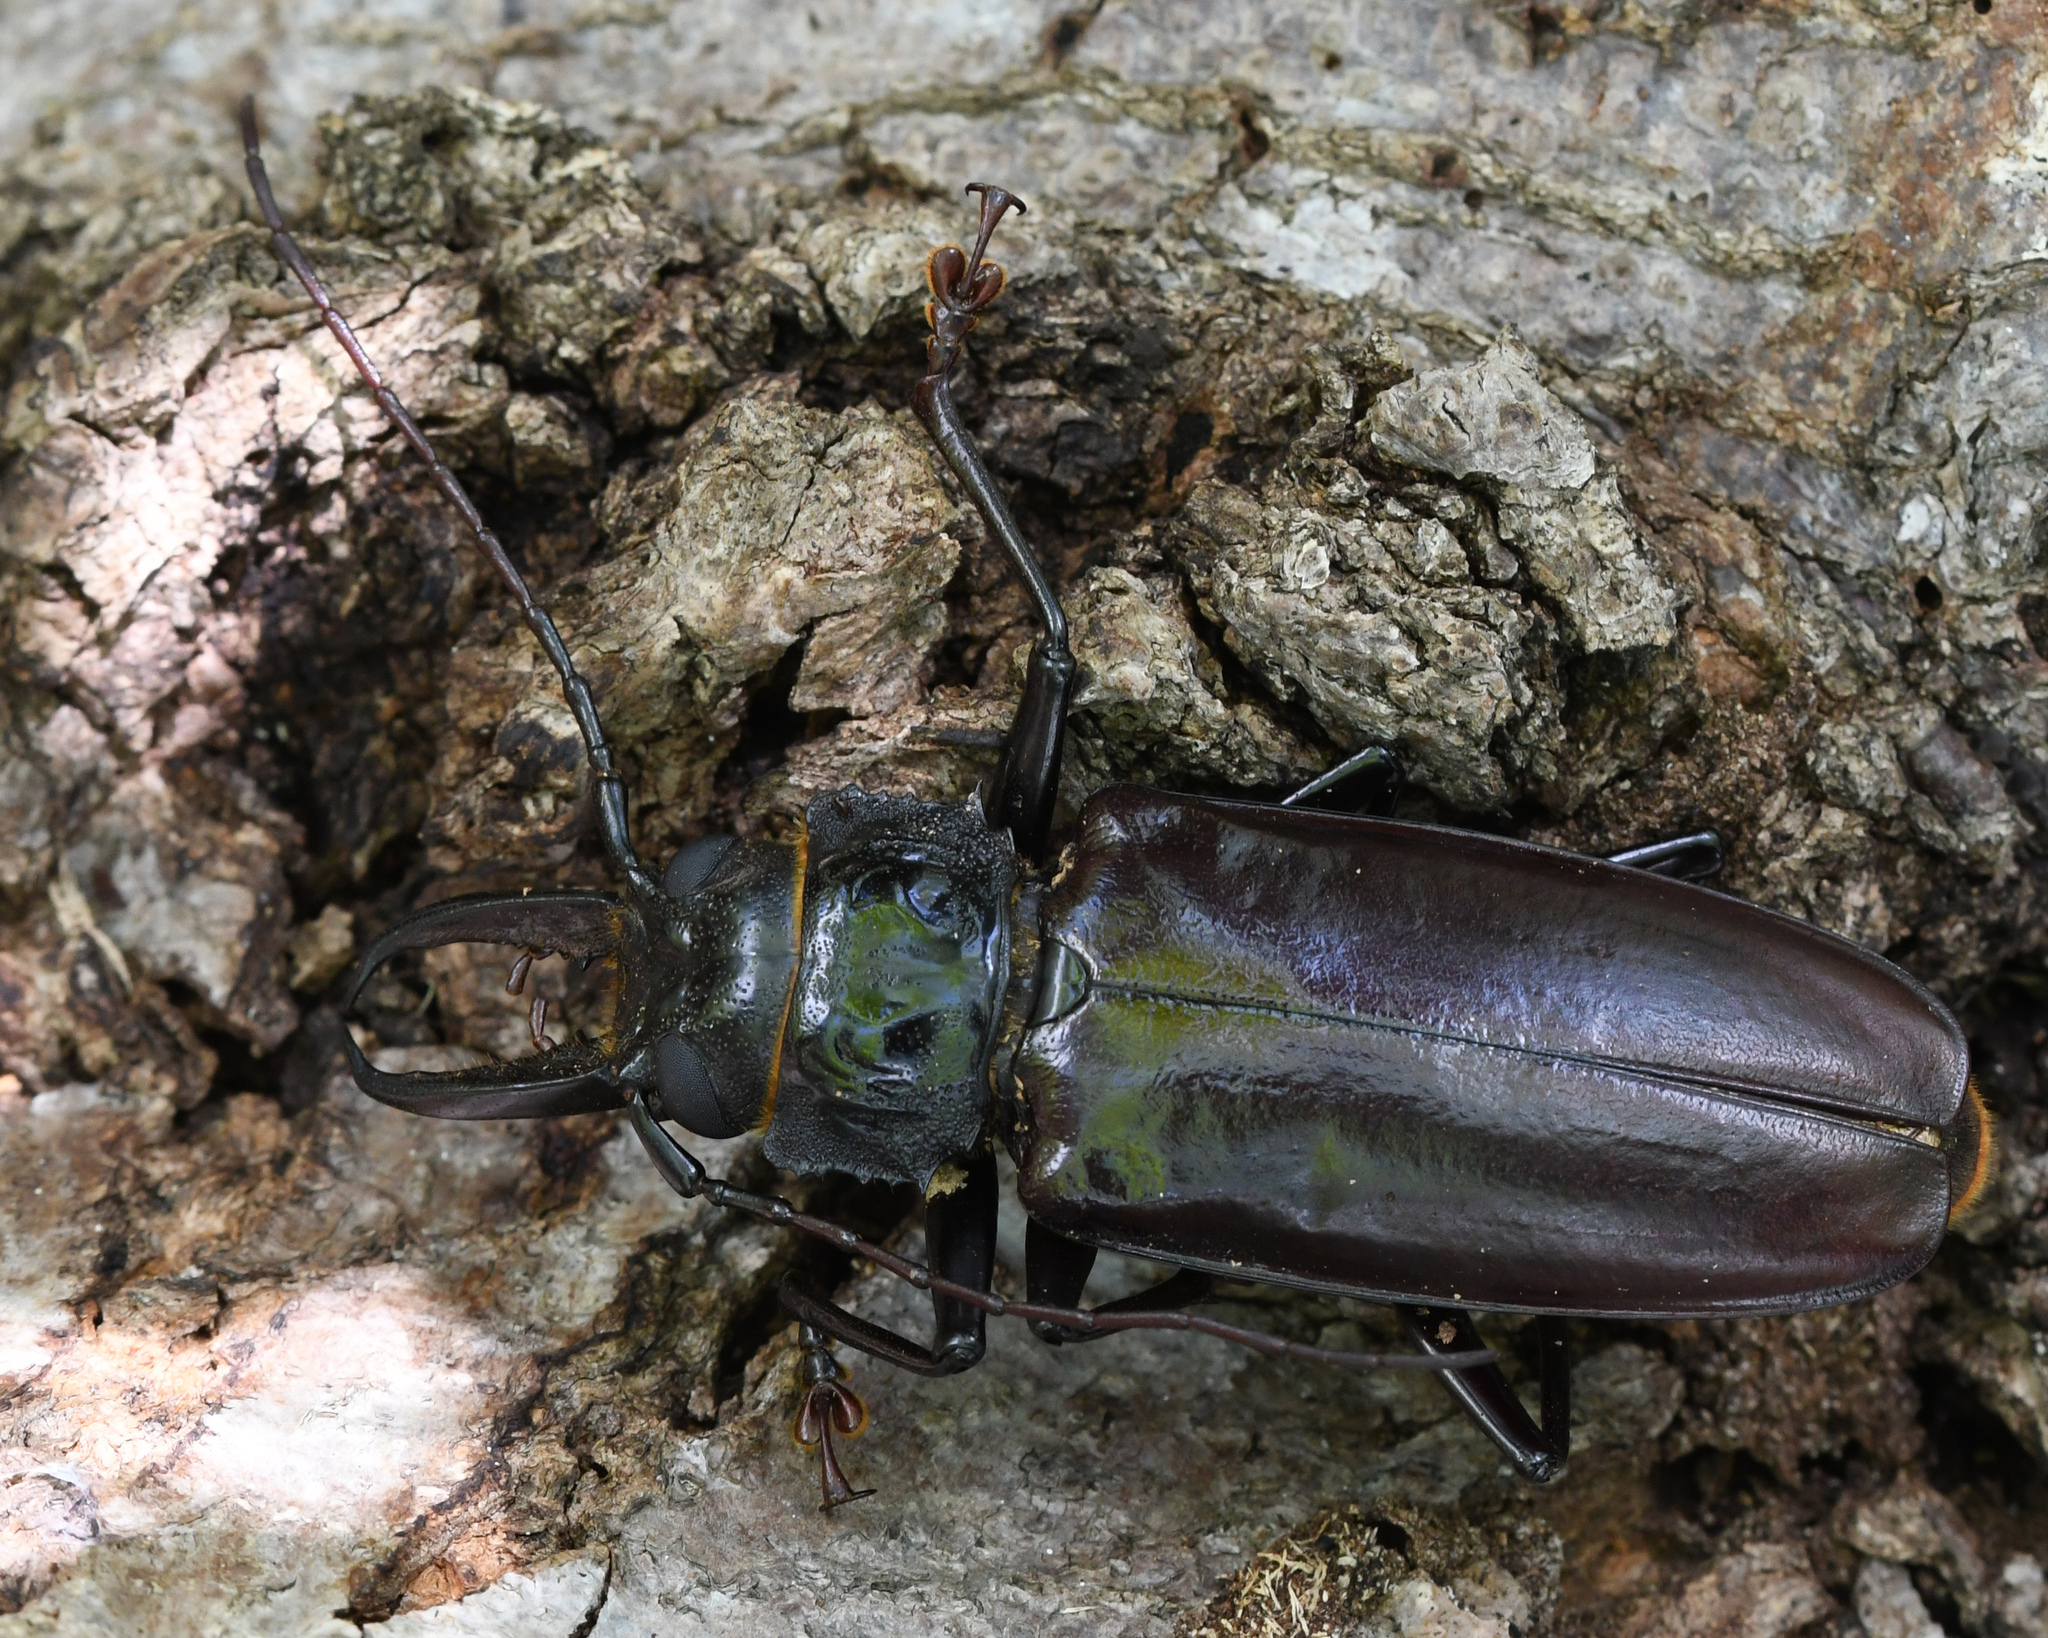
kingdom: Animalia
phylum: Arthropoda
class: Insecta
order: Coleoptera
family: Cerambycidae
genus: Stenodontes
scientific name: Stenodontes exsertus
